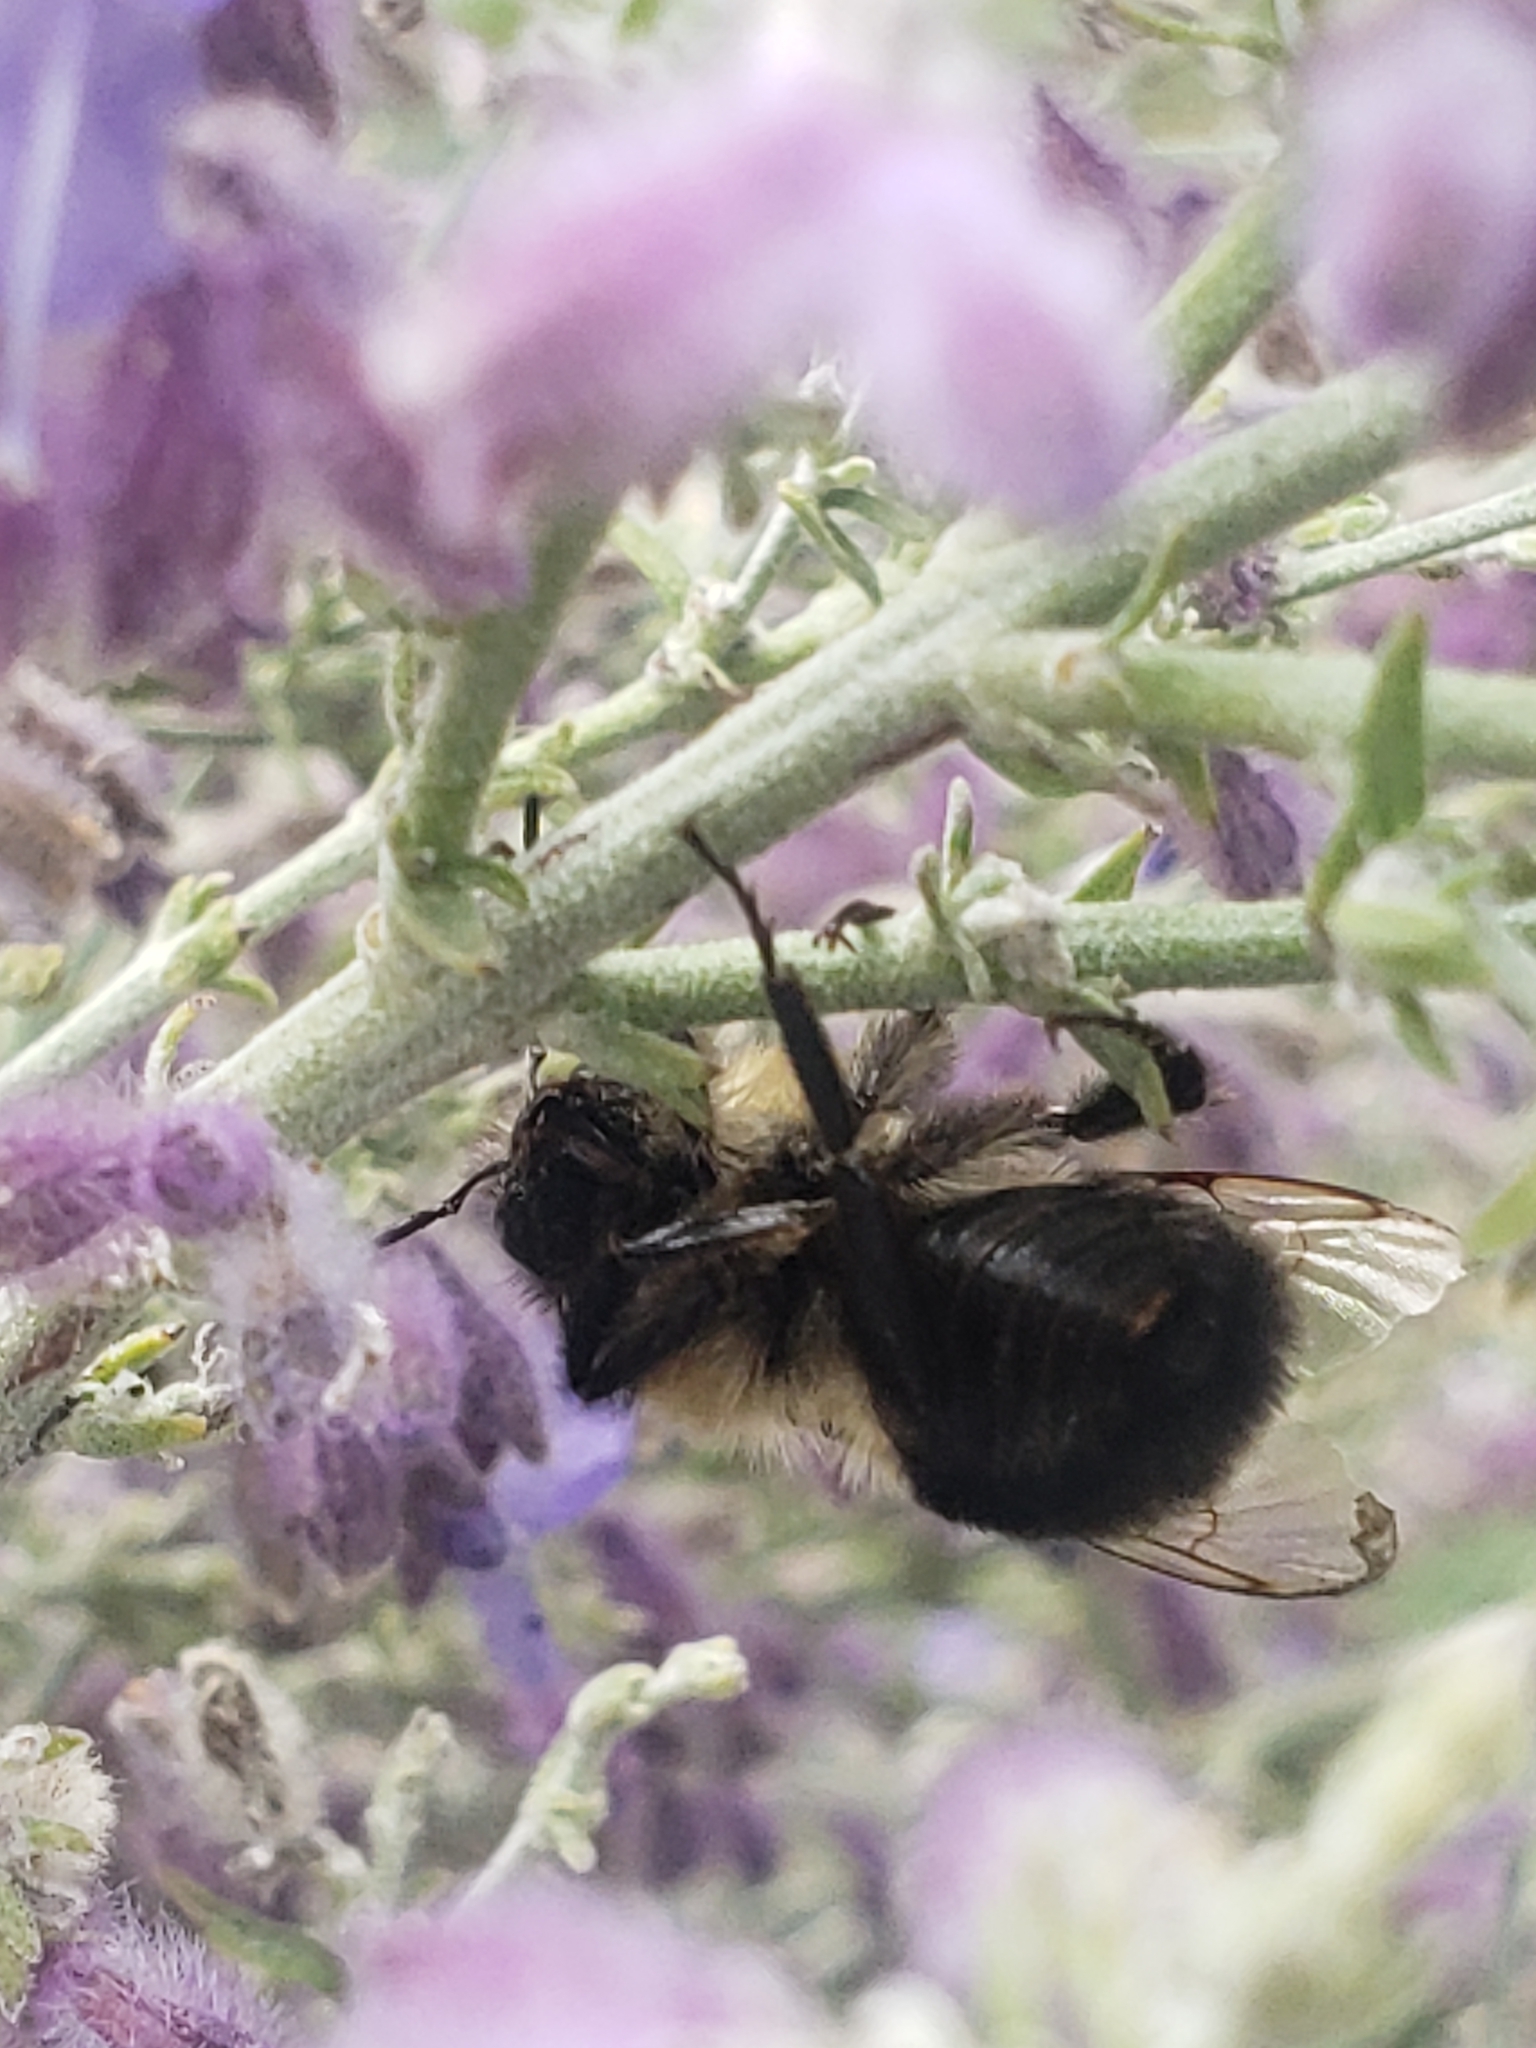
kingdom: Animalia
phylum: Arthropoda
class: Insecta
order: Hymenoptera
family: Apidae
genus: Bombus
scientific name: Bombus impatiens
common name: Common eastern bumble bee
